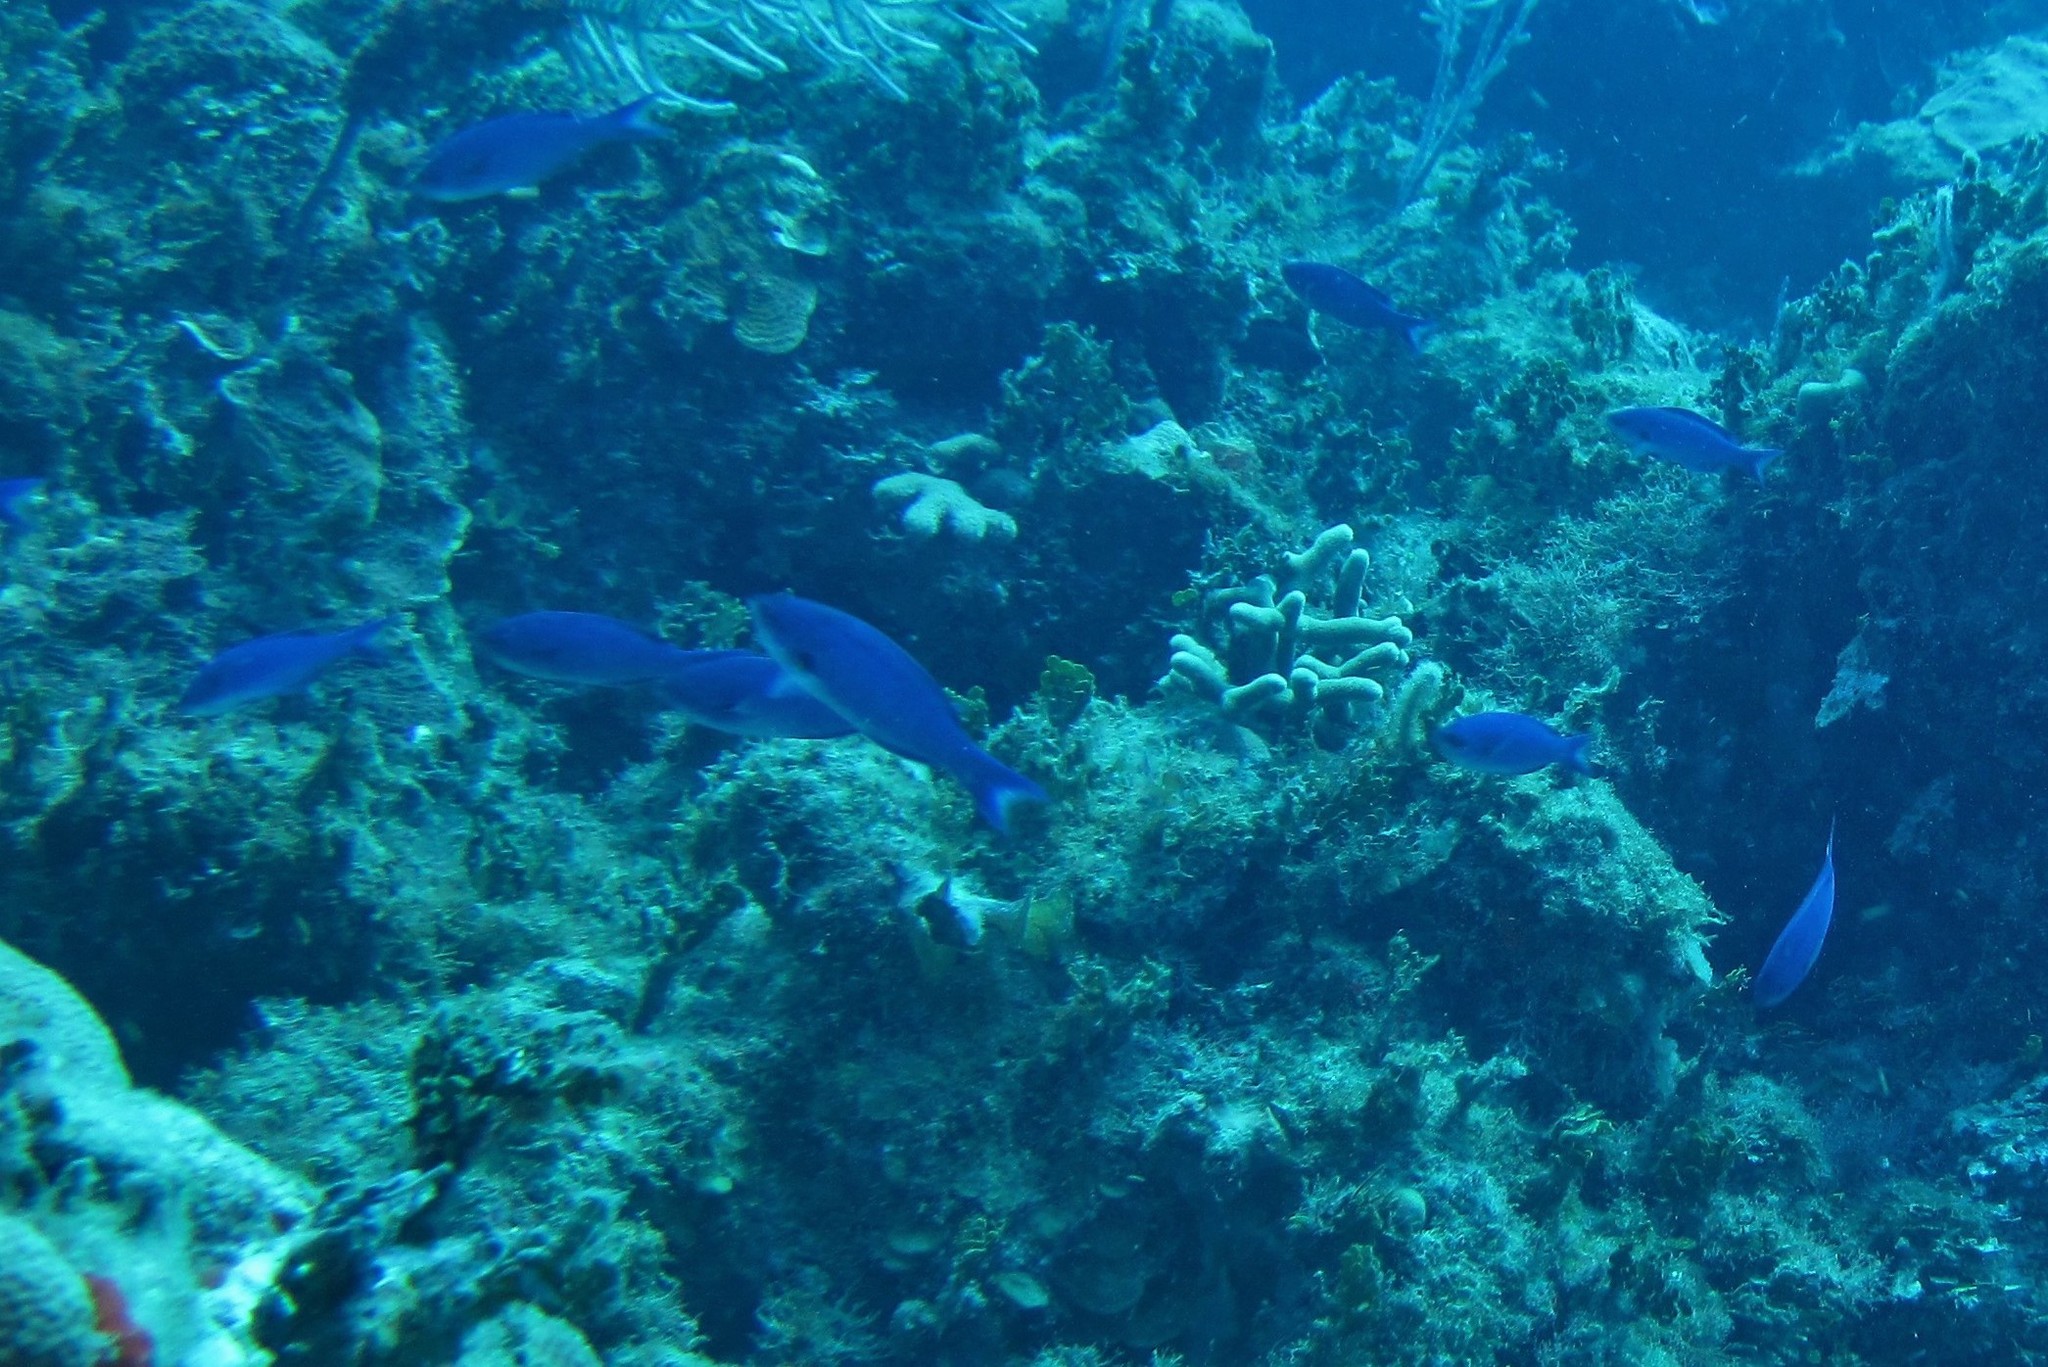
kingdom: Animalia
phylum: Chordata
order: Perciformes
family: Labridae
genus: Bodianus
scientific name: Bodianus
